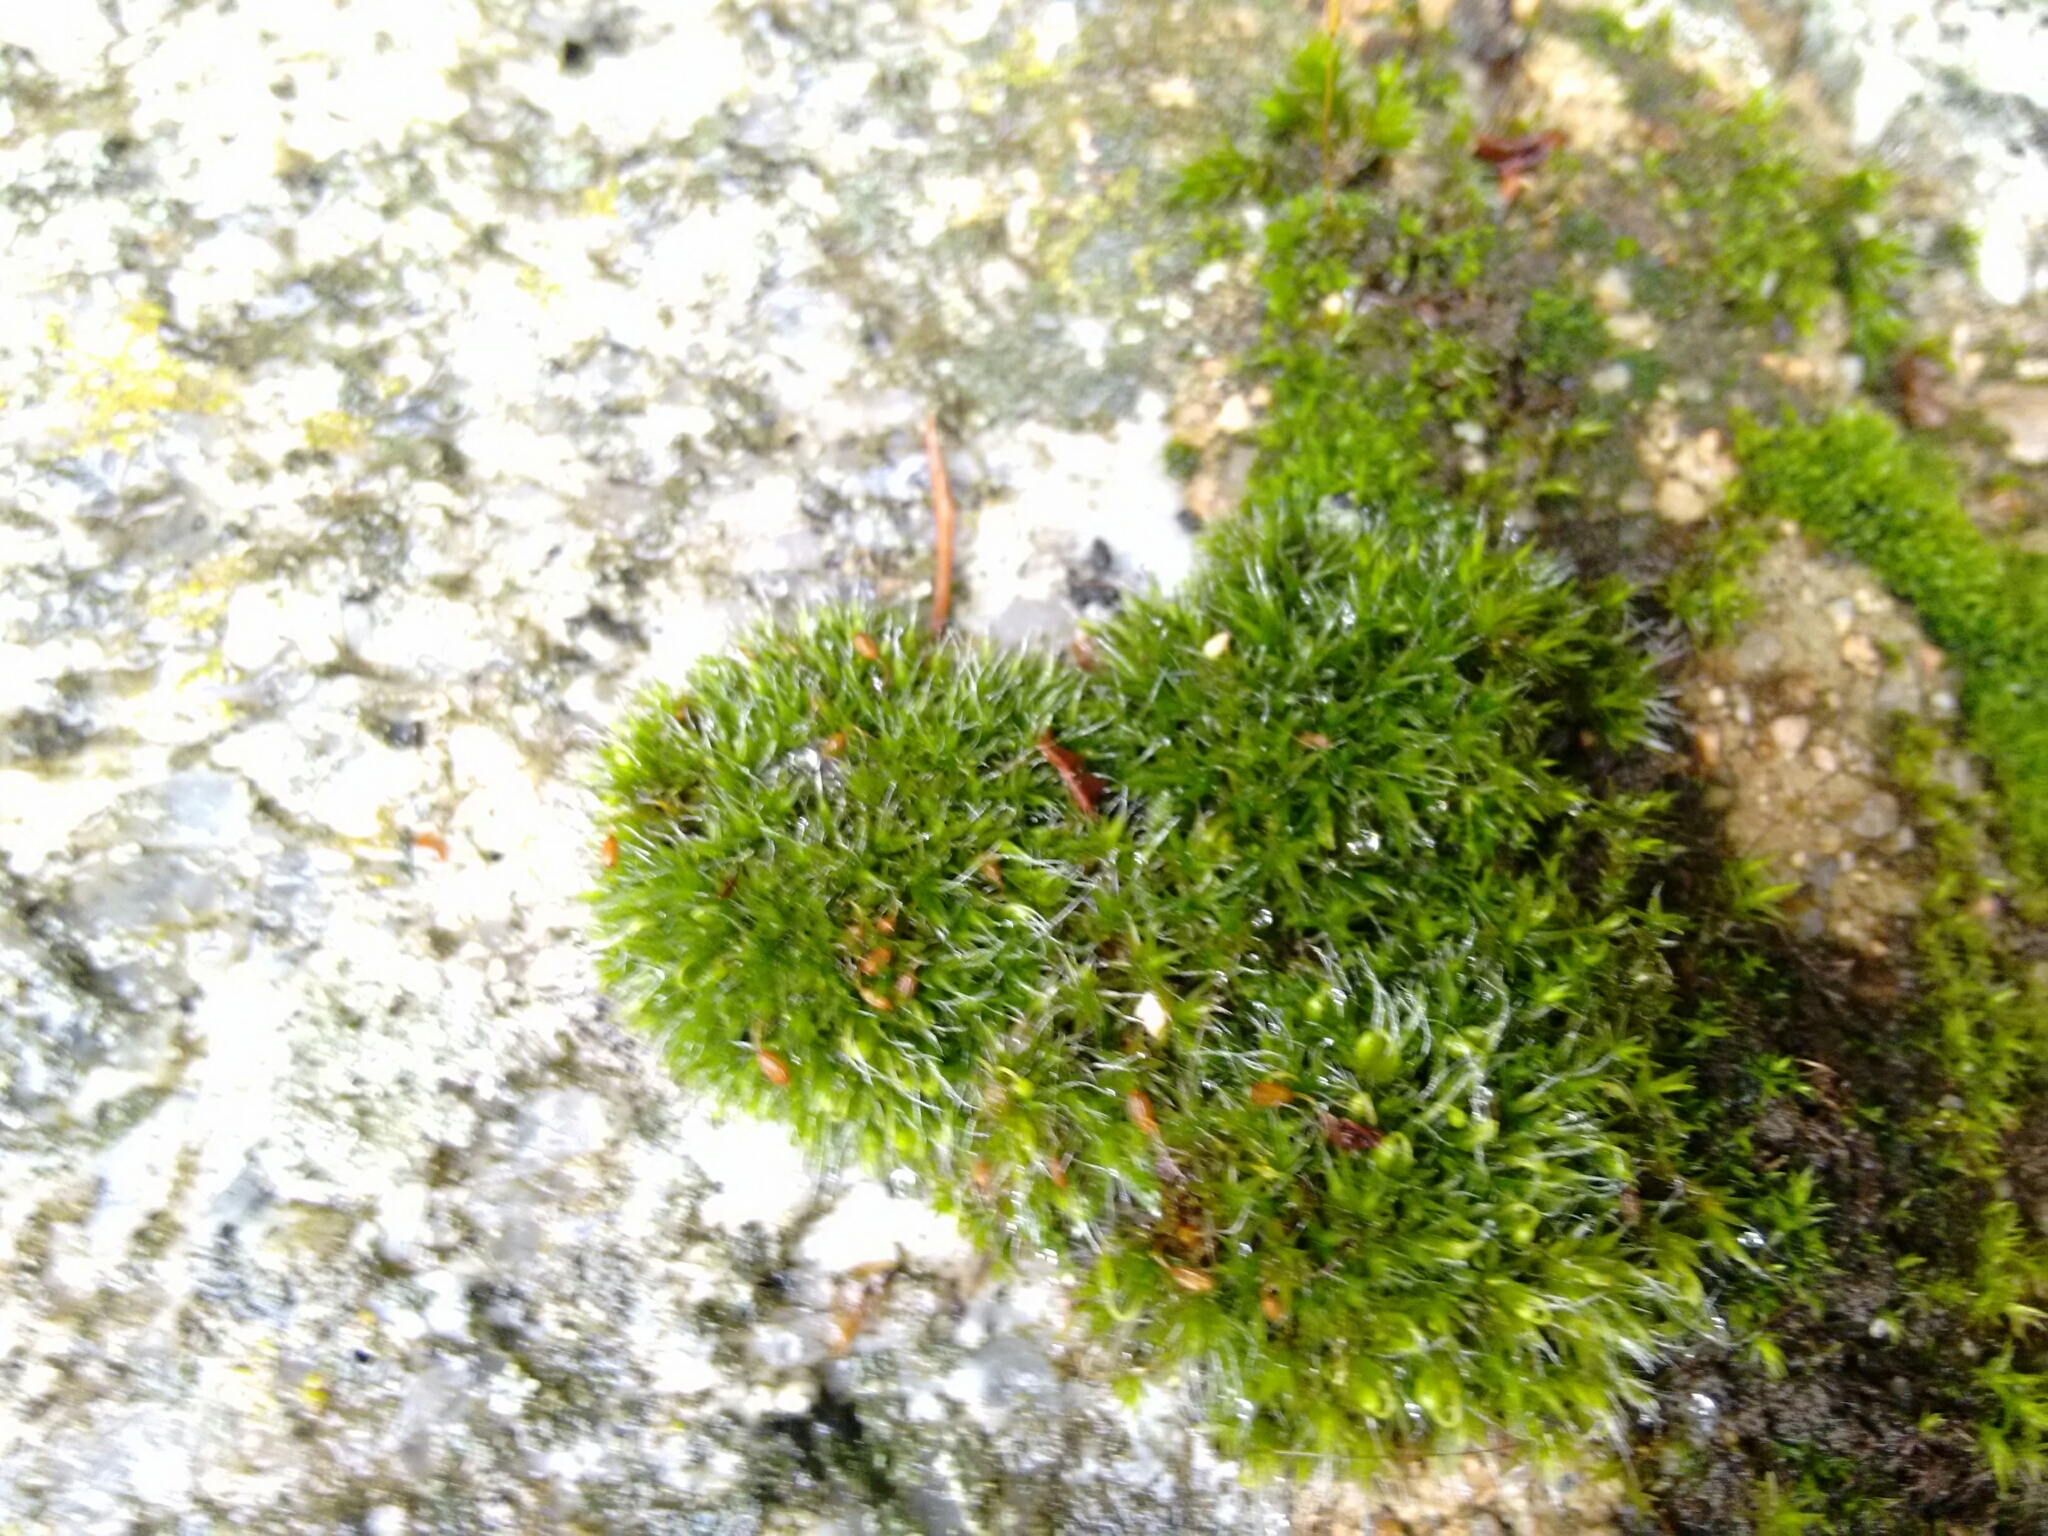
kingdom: Plantae
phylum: Bryophyta
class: Bryopsida
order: Grimmiales
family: Grimmiaceae
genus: Grimmia
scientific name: Grimmia pulvinata
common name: Grey-cushioned grimmia
